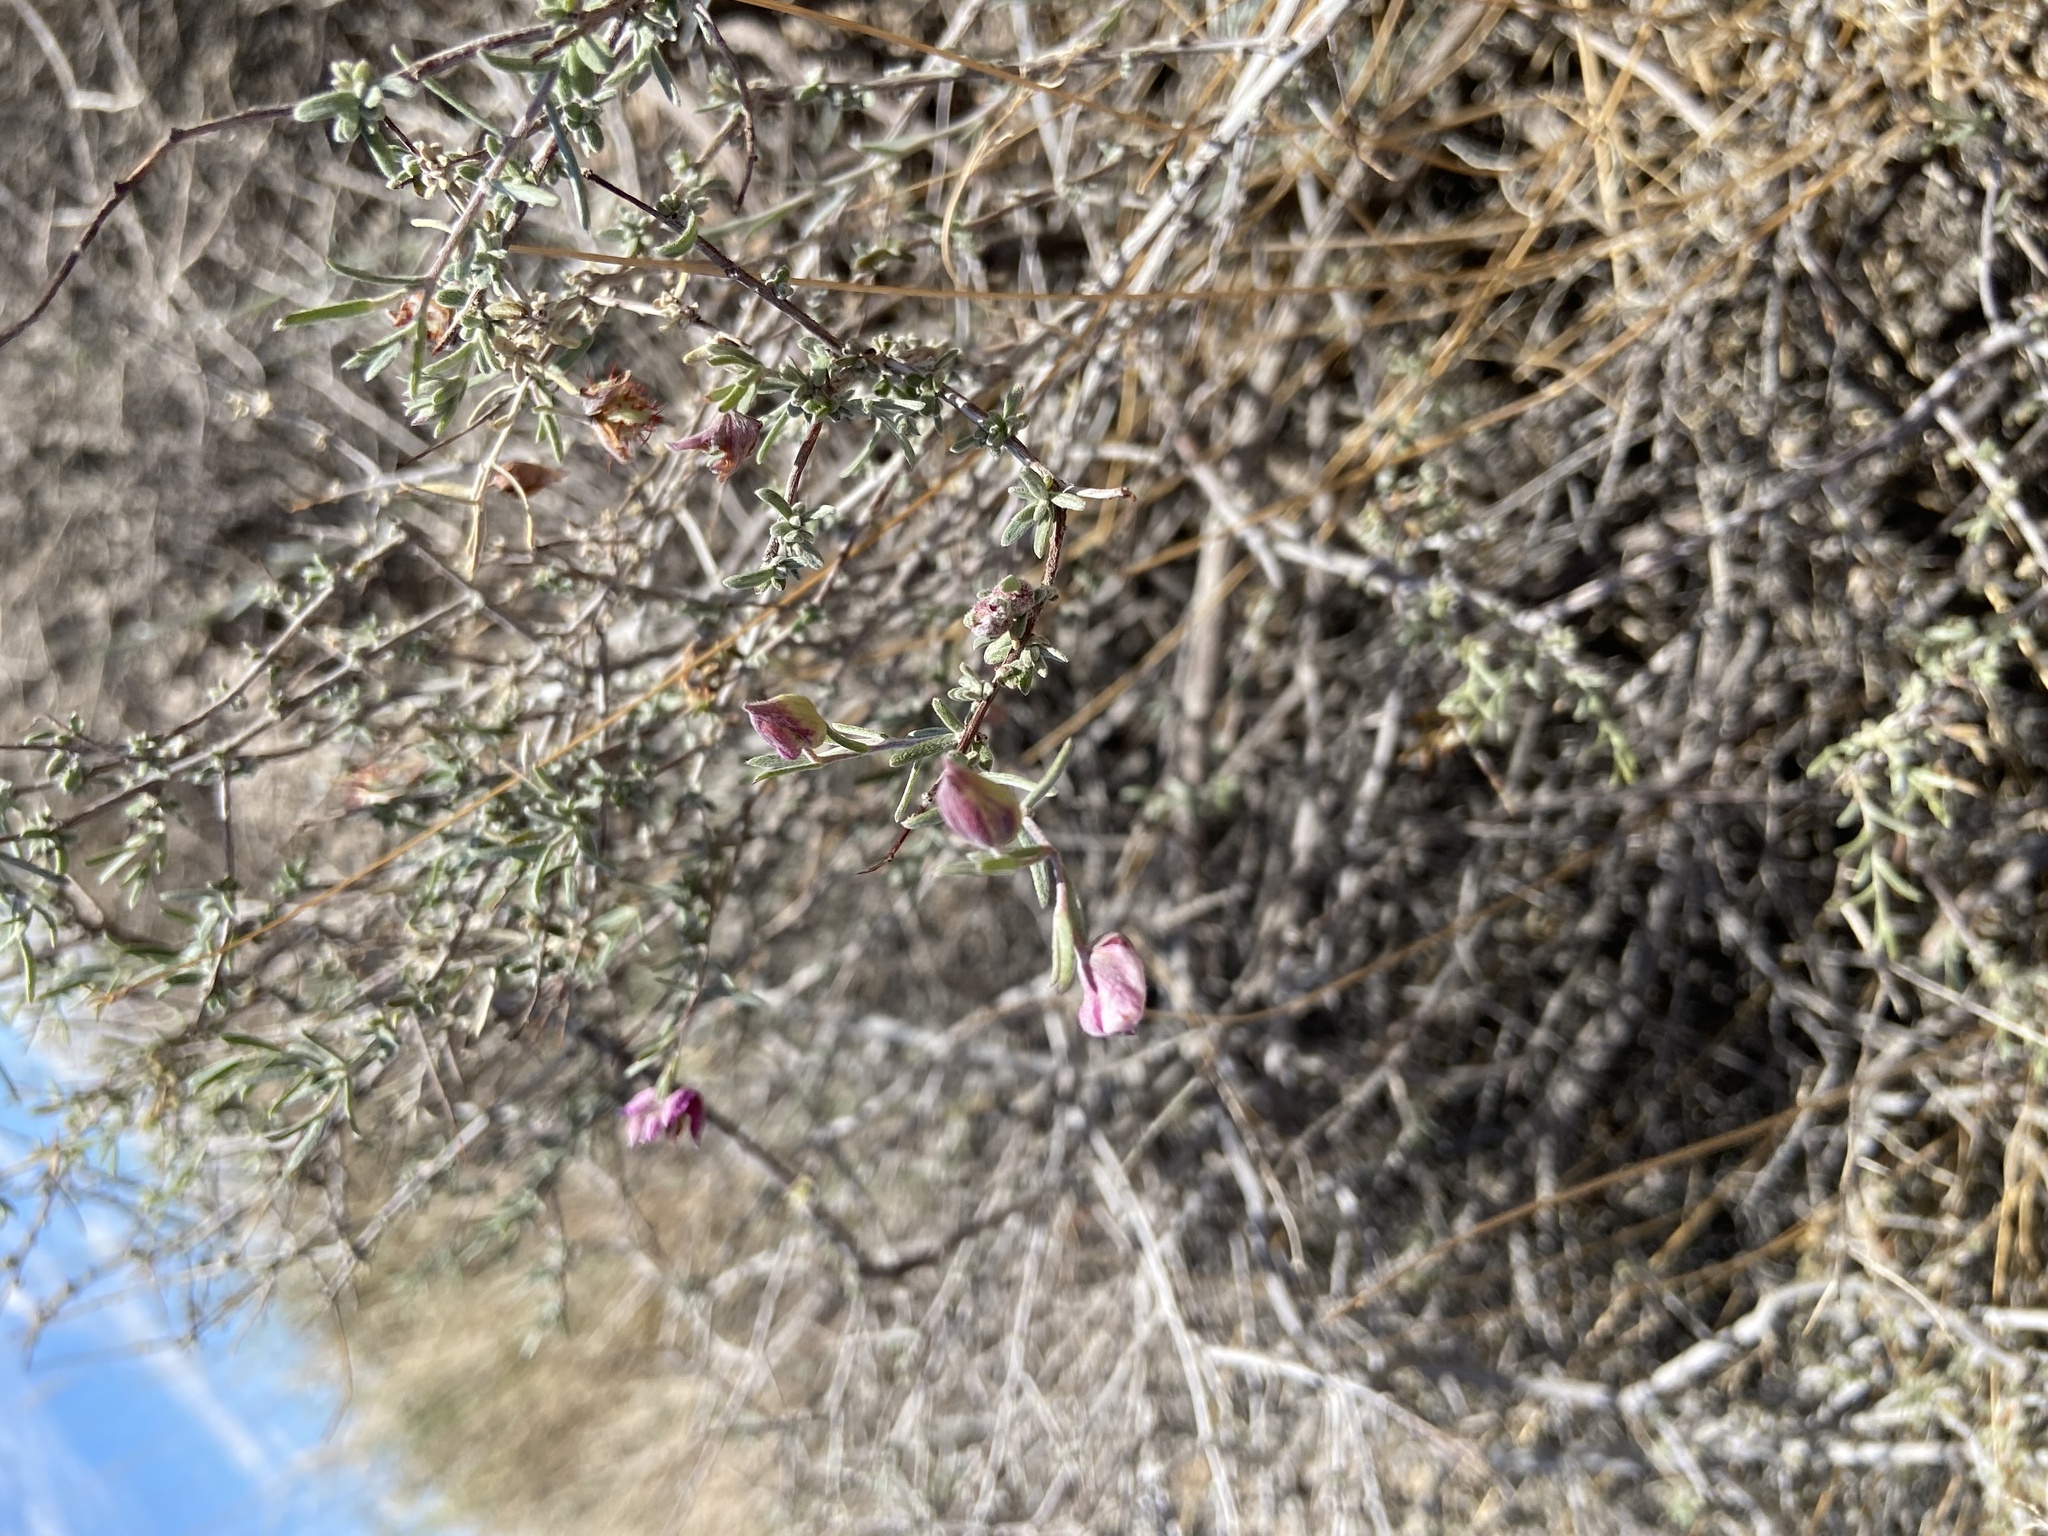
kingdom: Plantae
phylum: Tracheophyta
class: Magnoliopsida
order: Zygophyllales
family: Krameriaceae
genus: Krameria
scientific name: Krameria erecta
